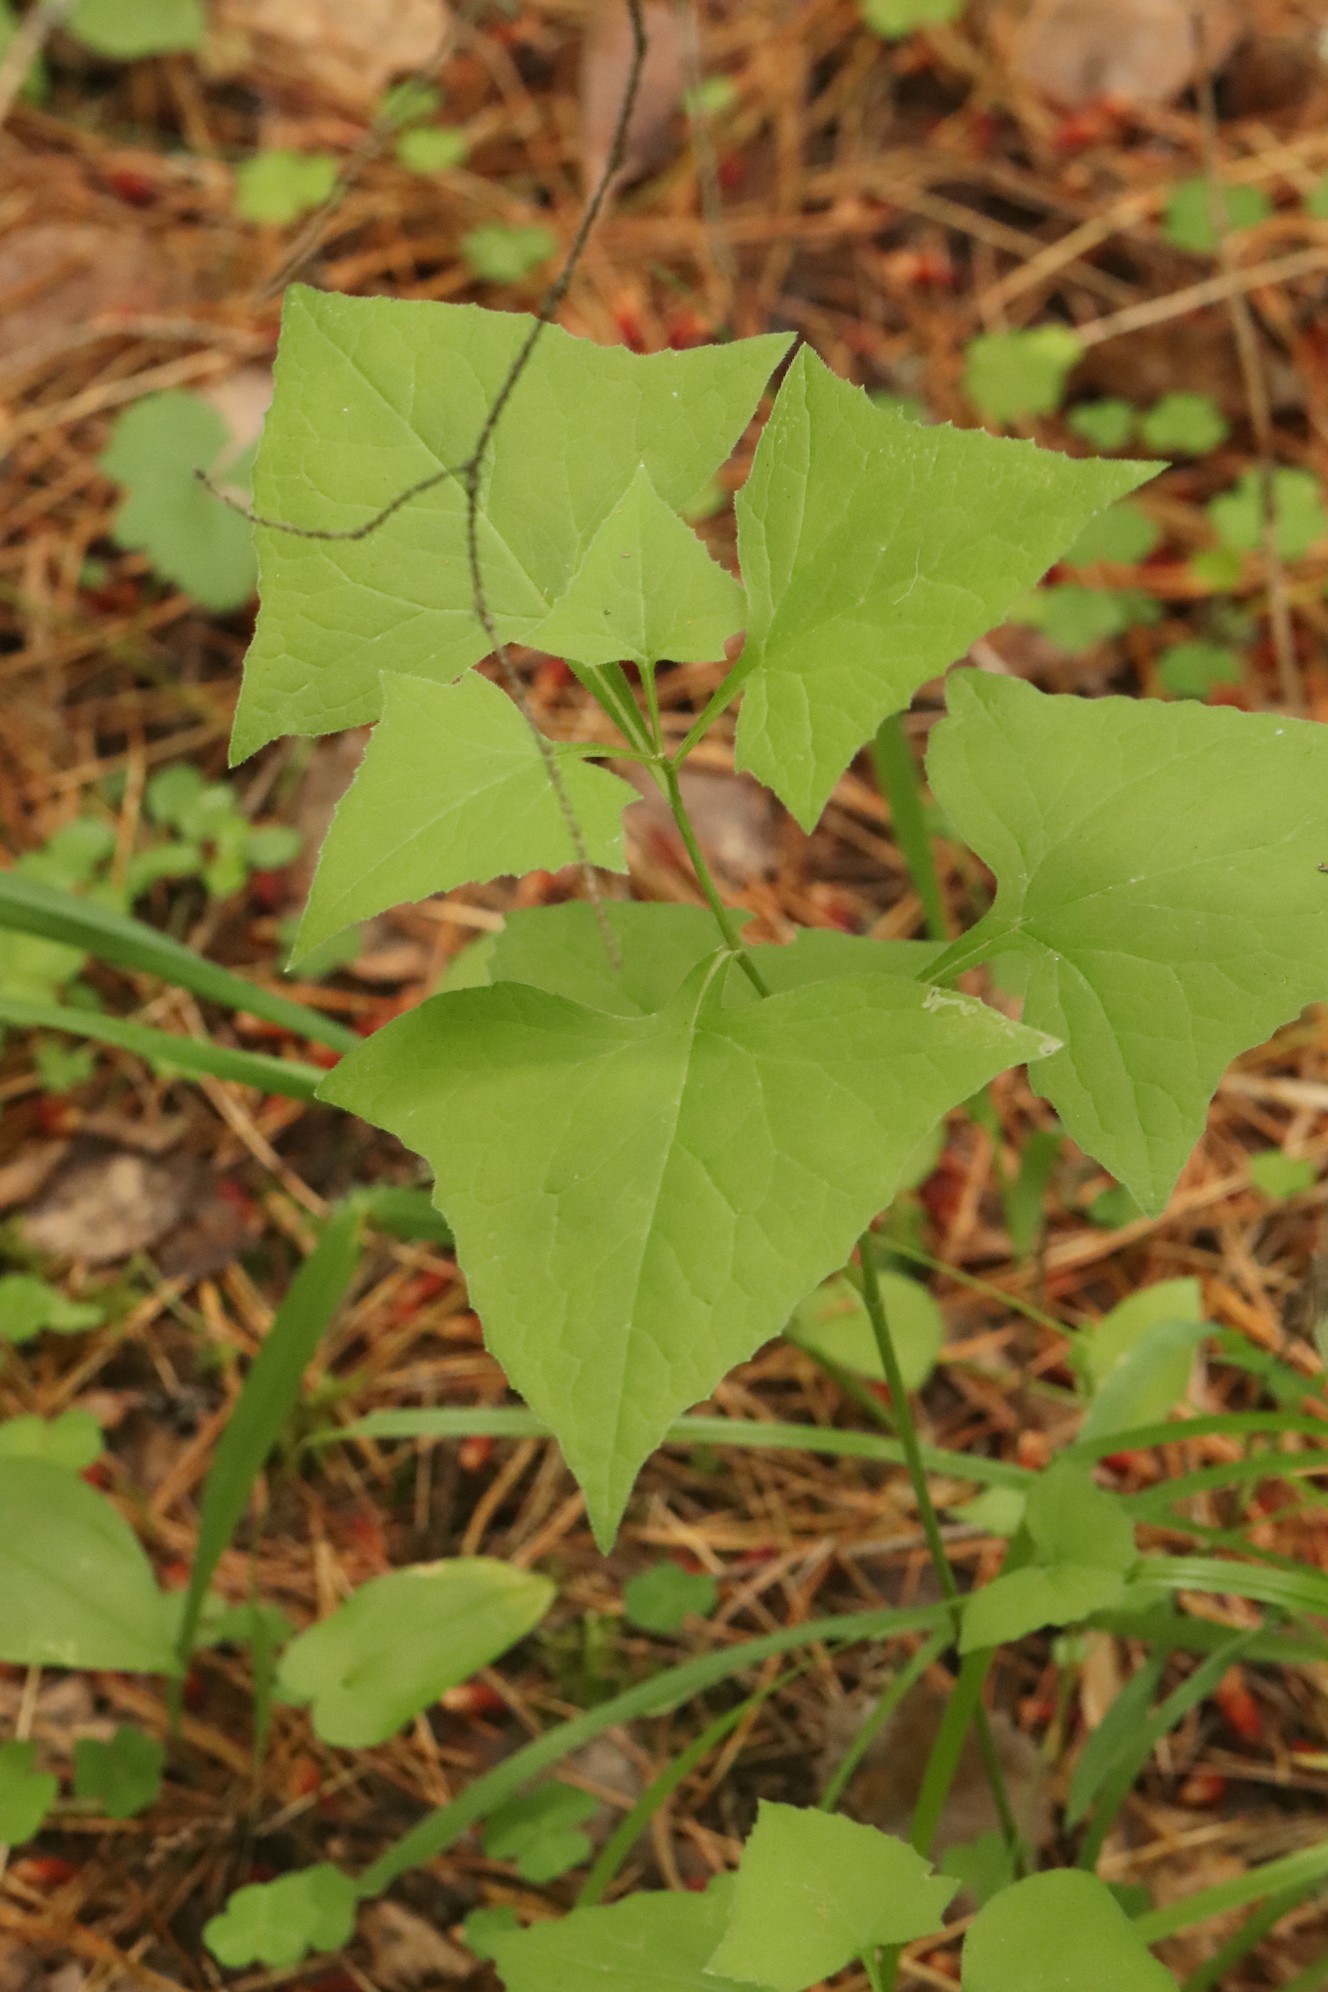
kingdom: Plantae
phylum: Tracheophyta
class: Magnoliopsida
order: Asterales
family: Asteraceae
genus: Parasenecio
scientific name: Parasenecio hastatus
